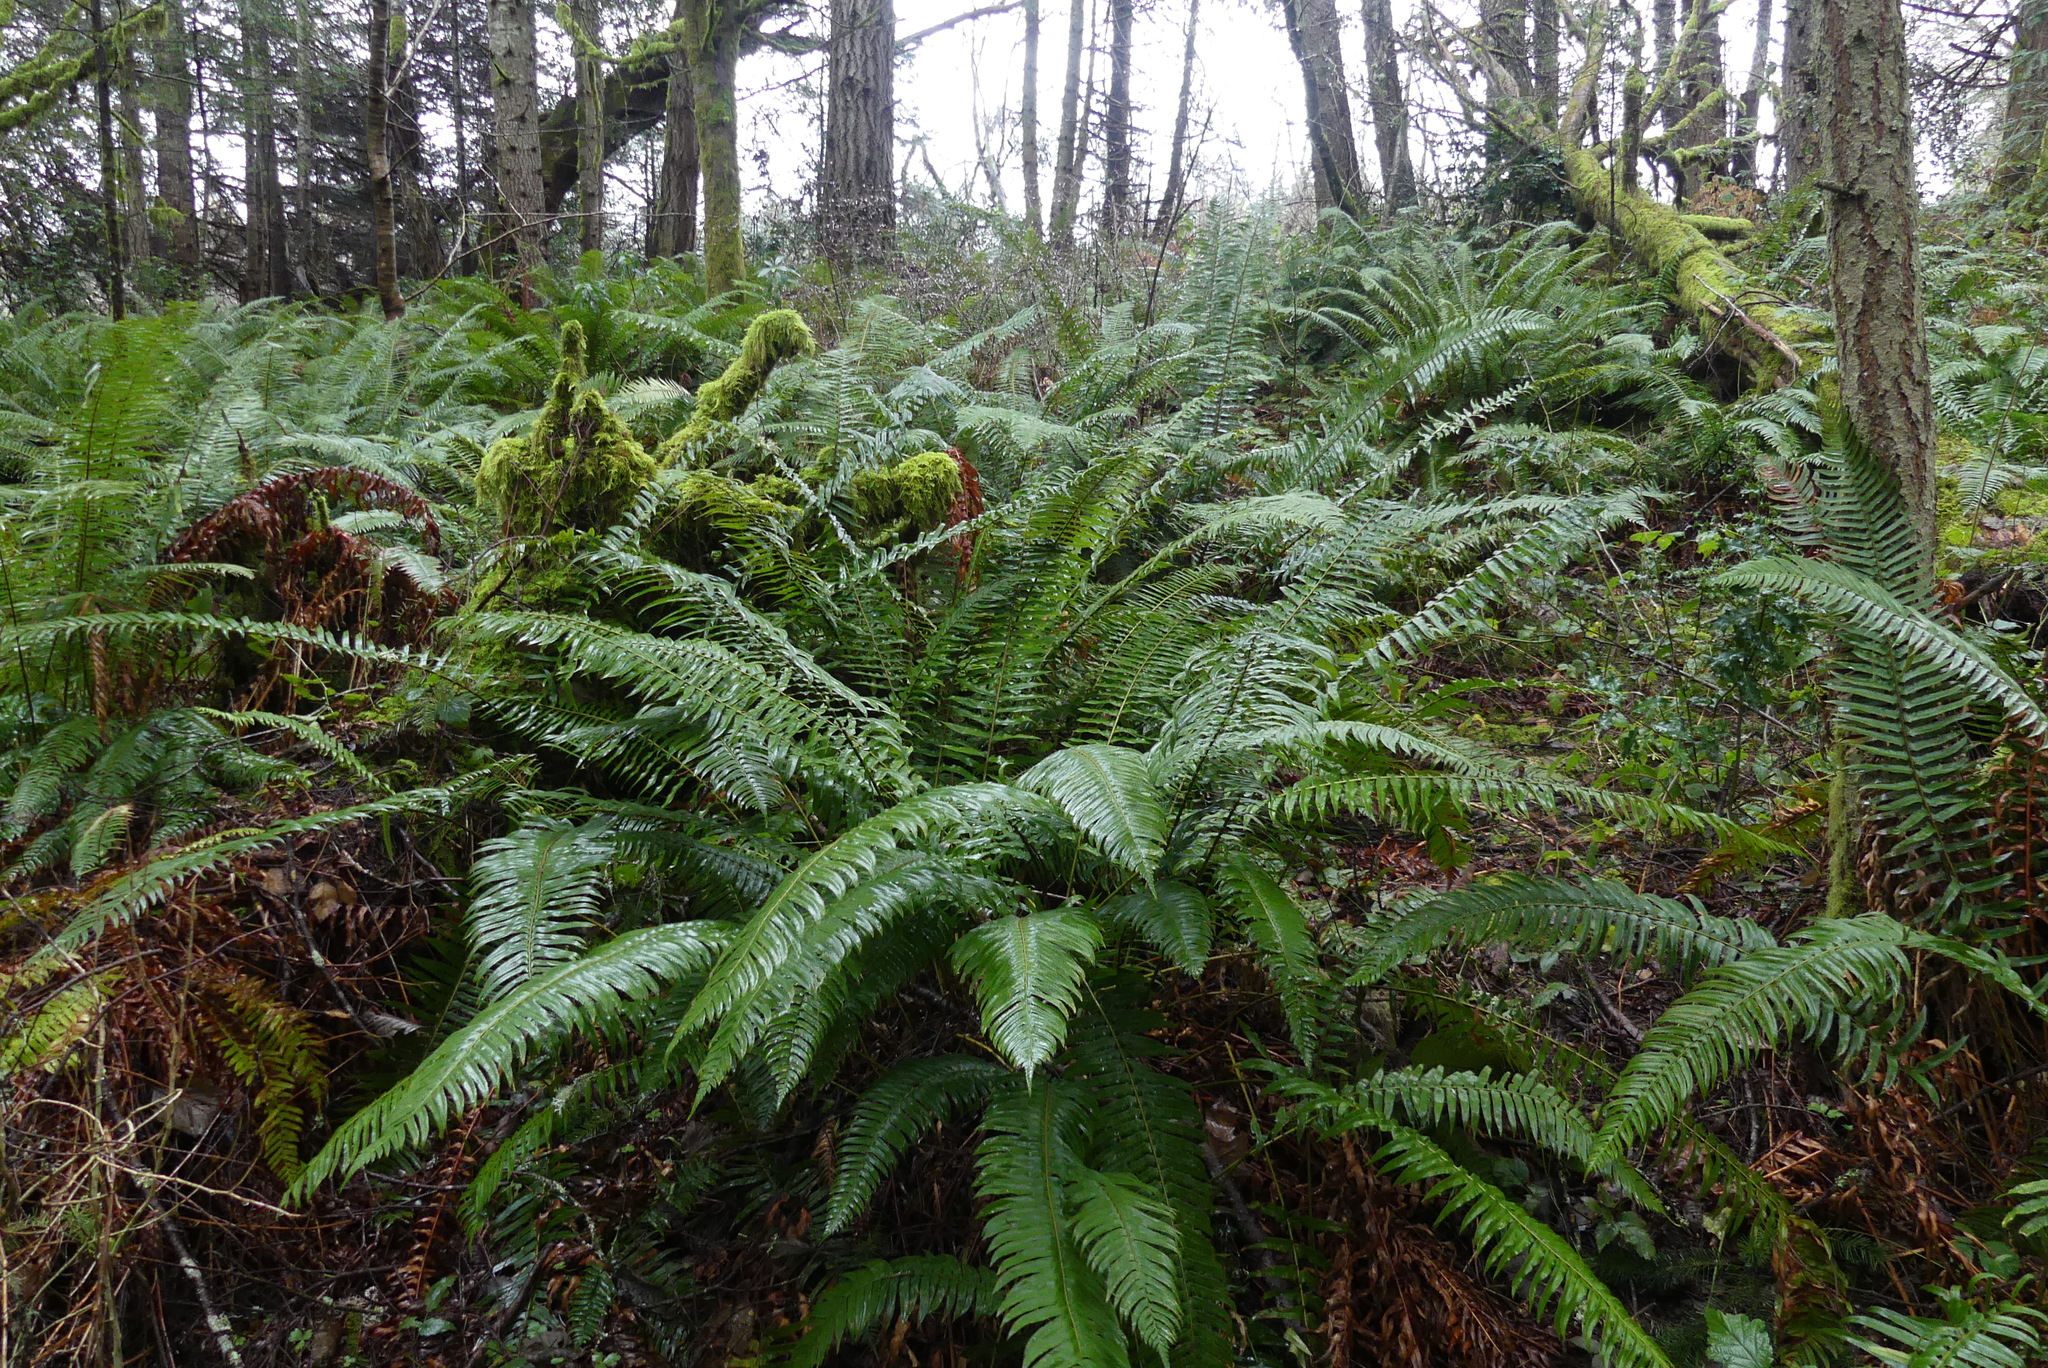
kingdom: Plantae
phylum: Tracheophyta
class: Polypodiopsida
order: Polypodiales
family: Dryopteridaceae
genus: Polystichum
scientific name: Polystichum munitum
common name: Western sword-fern
